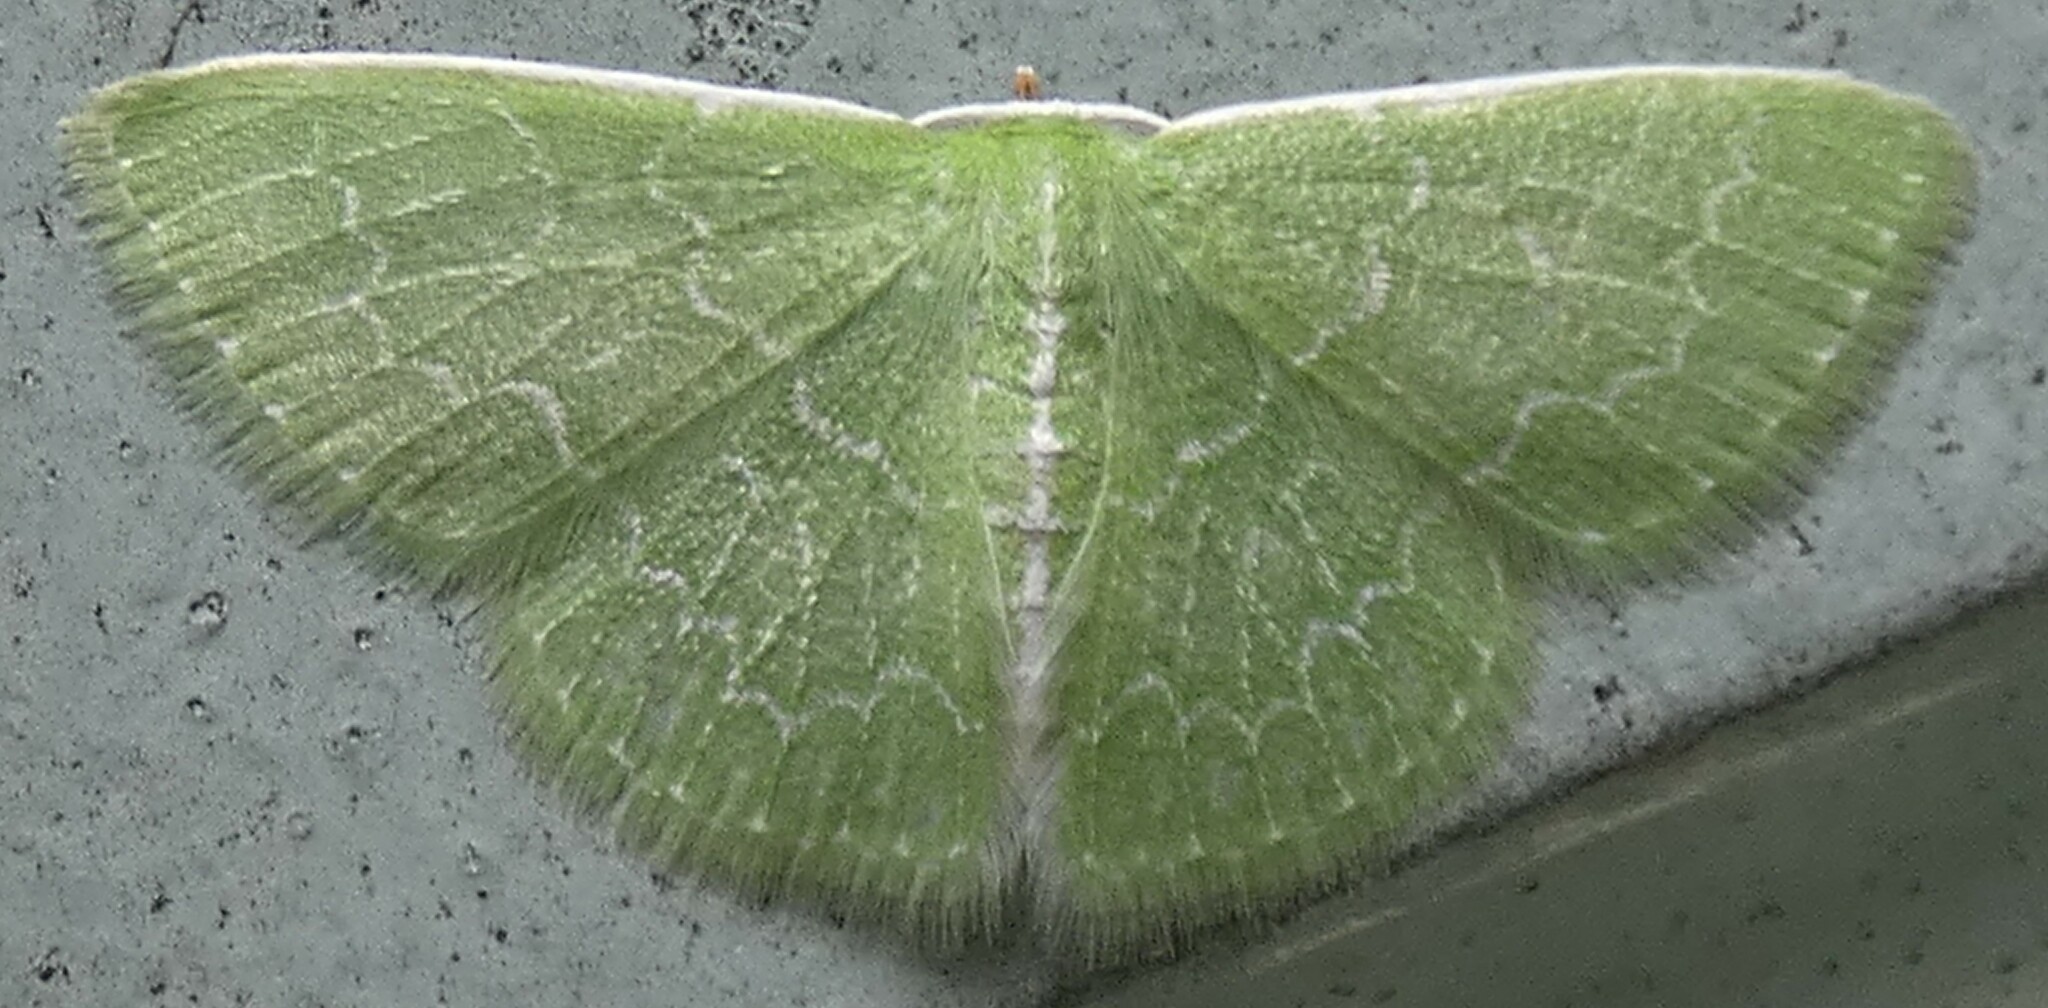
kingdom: Animalia
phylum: Arthropoda
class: Insecta
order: Lepidoptera
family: Geometridae
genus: Synchlora
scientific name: Synchlora frondaria
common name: Southern emerald
